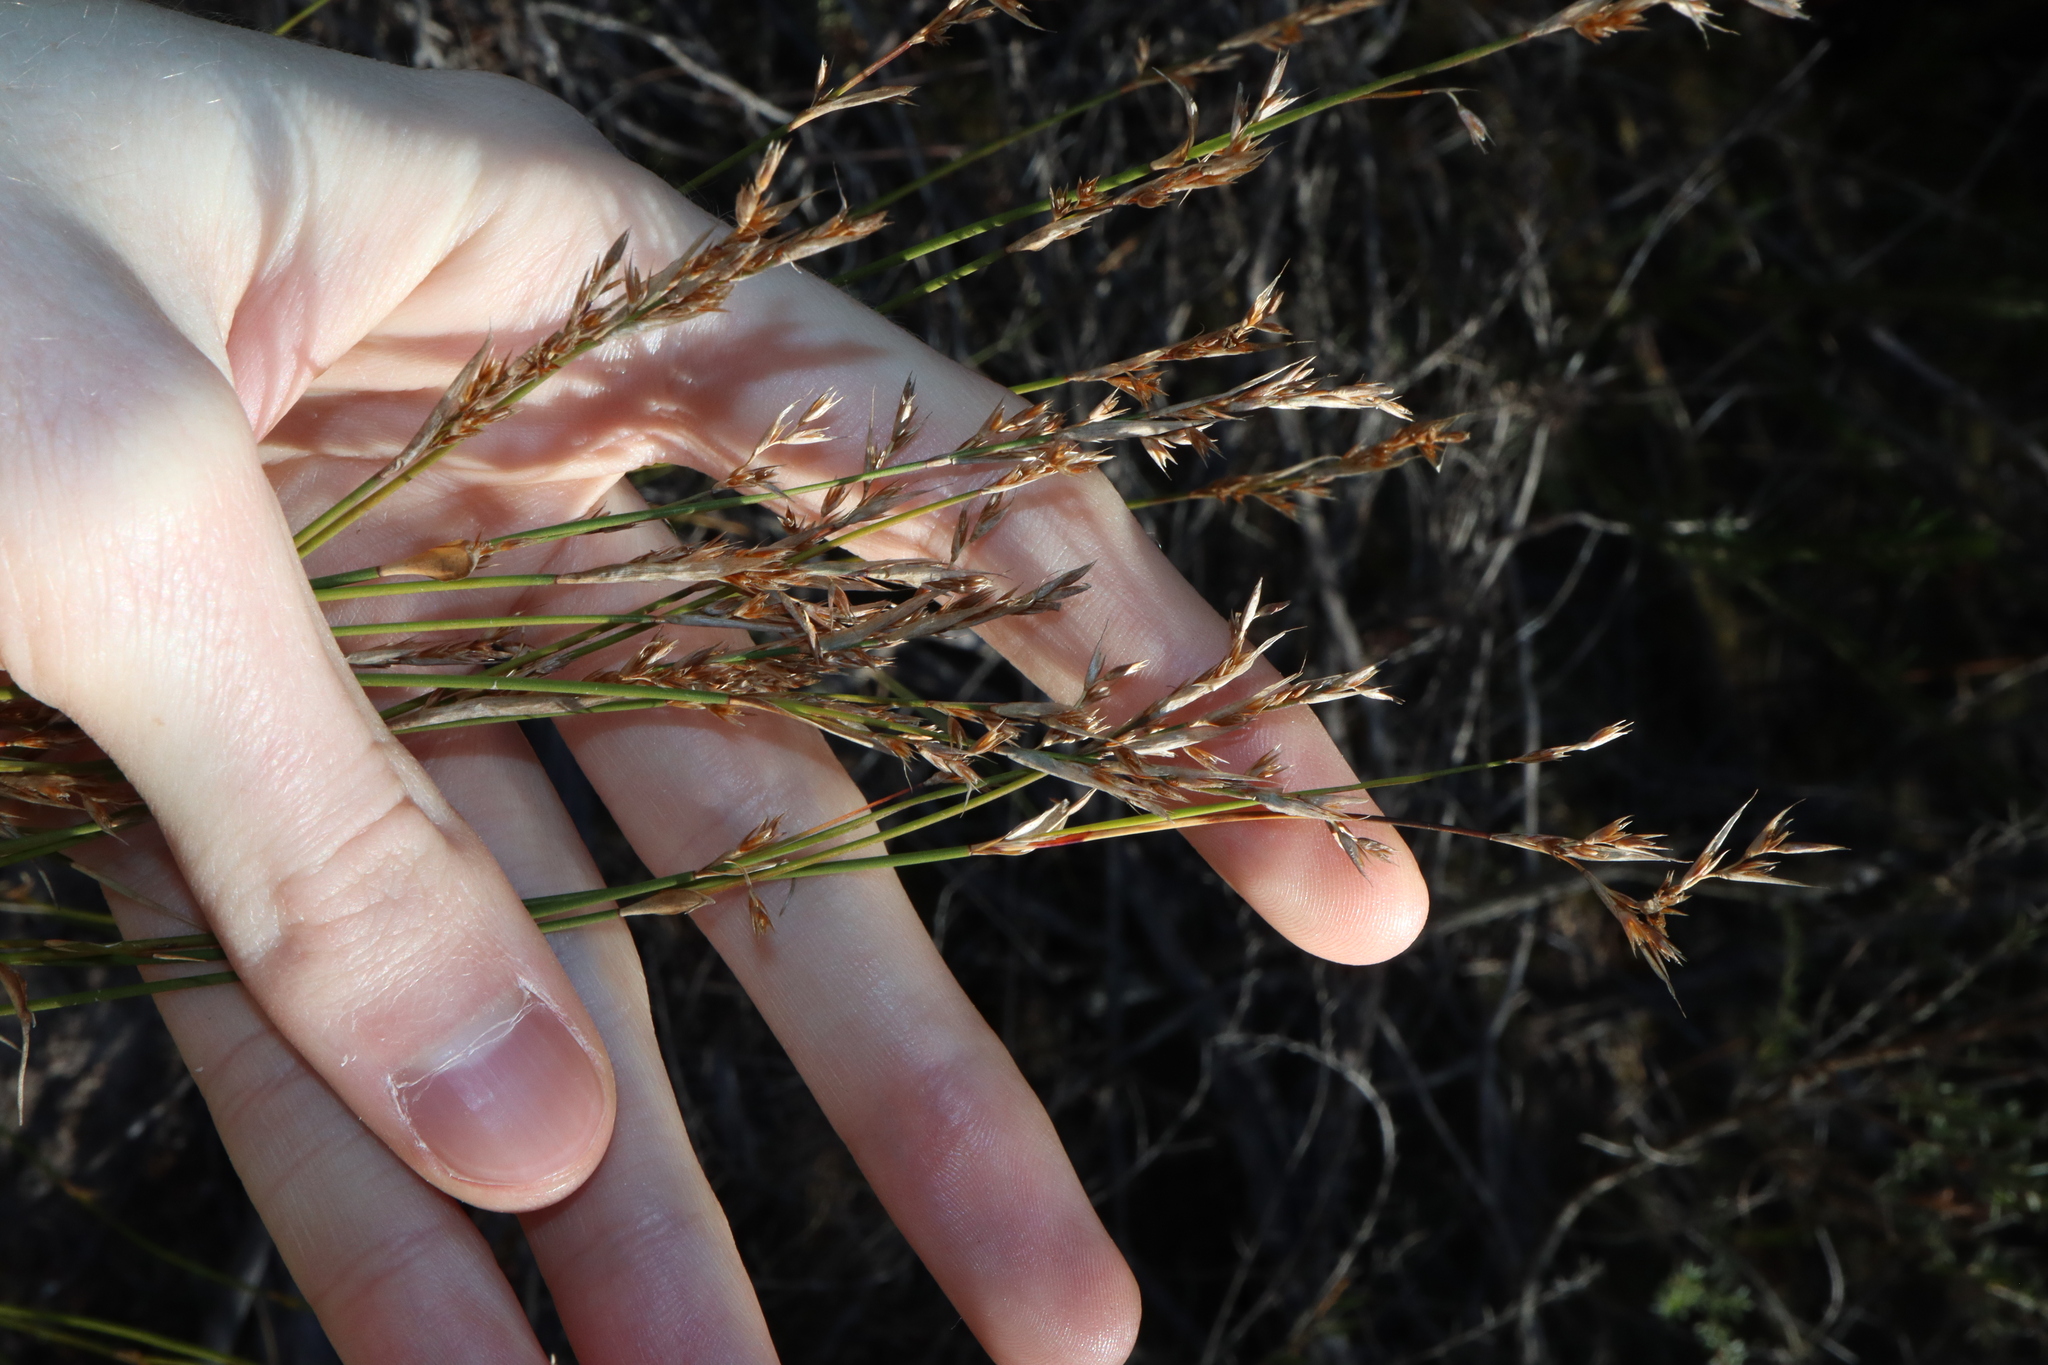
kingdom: Plantae
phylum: Tracheophyta
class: Liliopsida
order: Poales
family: Restionaceae
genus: Lepyrodia
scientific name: Lepyrodia scariosa
